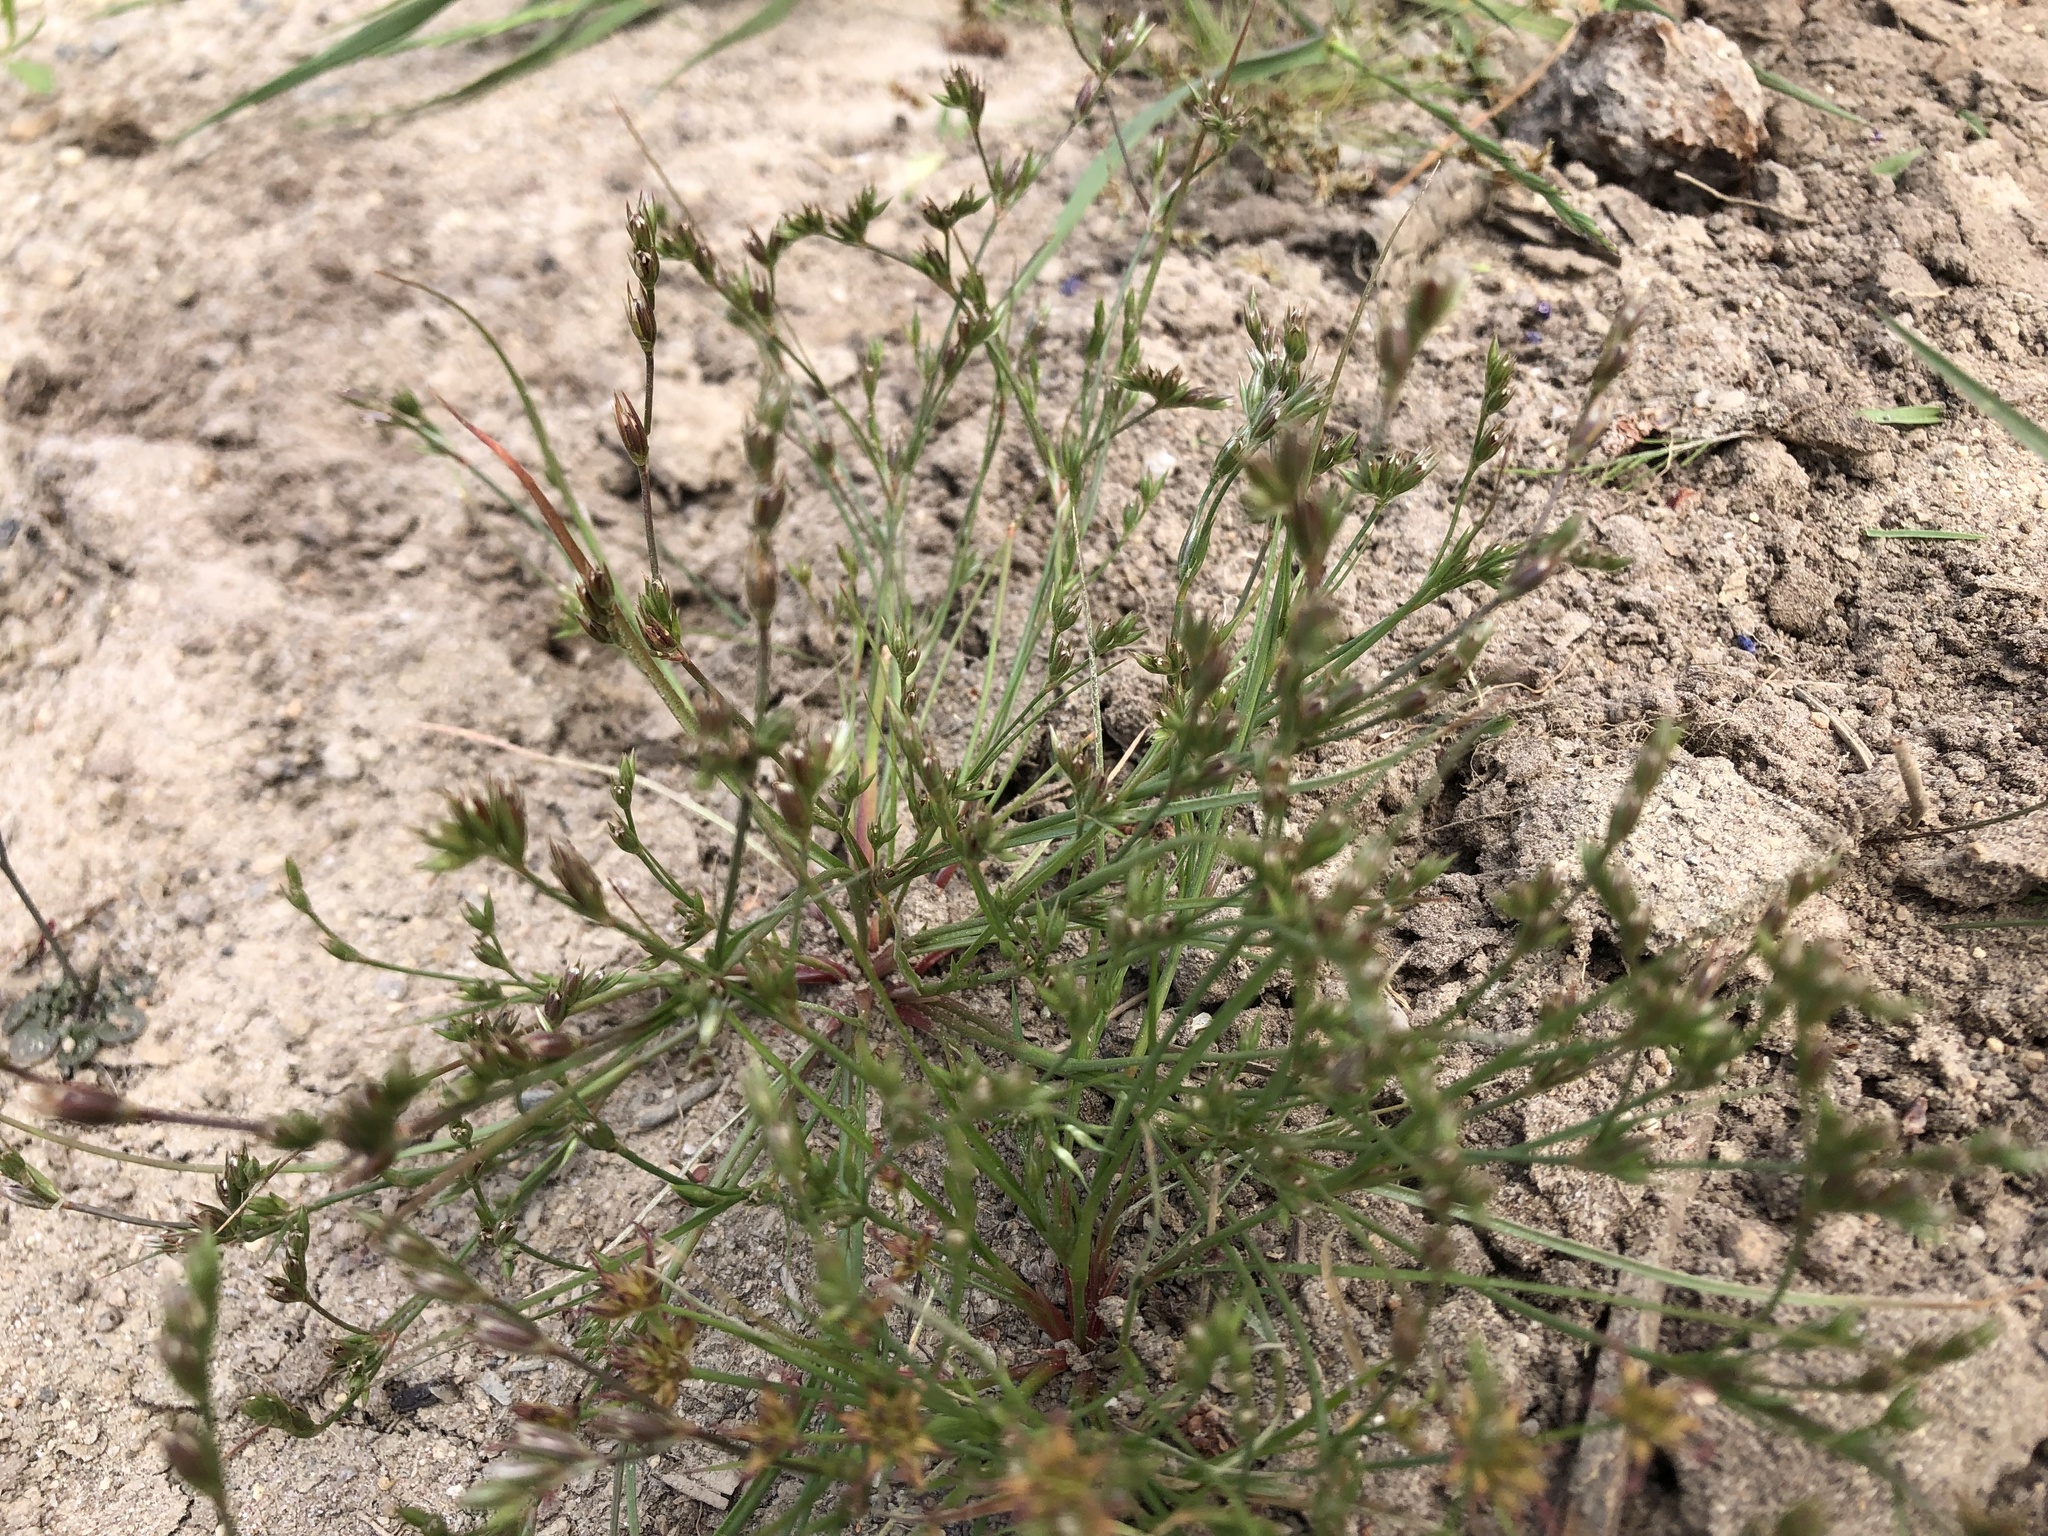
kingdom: Plantae
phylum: Tracheophyta
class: Liliopsida
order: Poales
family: Juncaceae
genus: Juncus
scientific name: Juncus bufonius
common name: Toad rush
